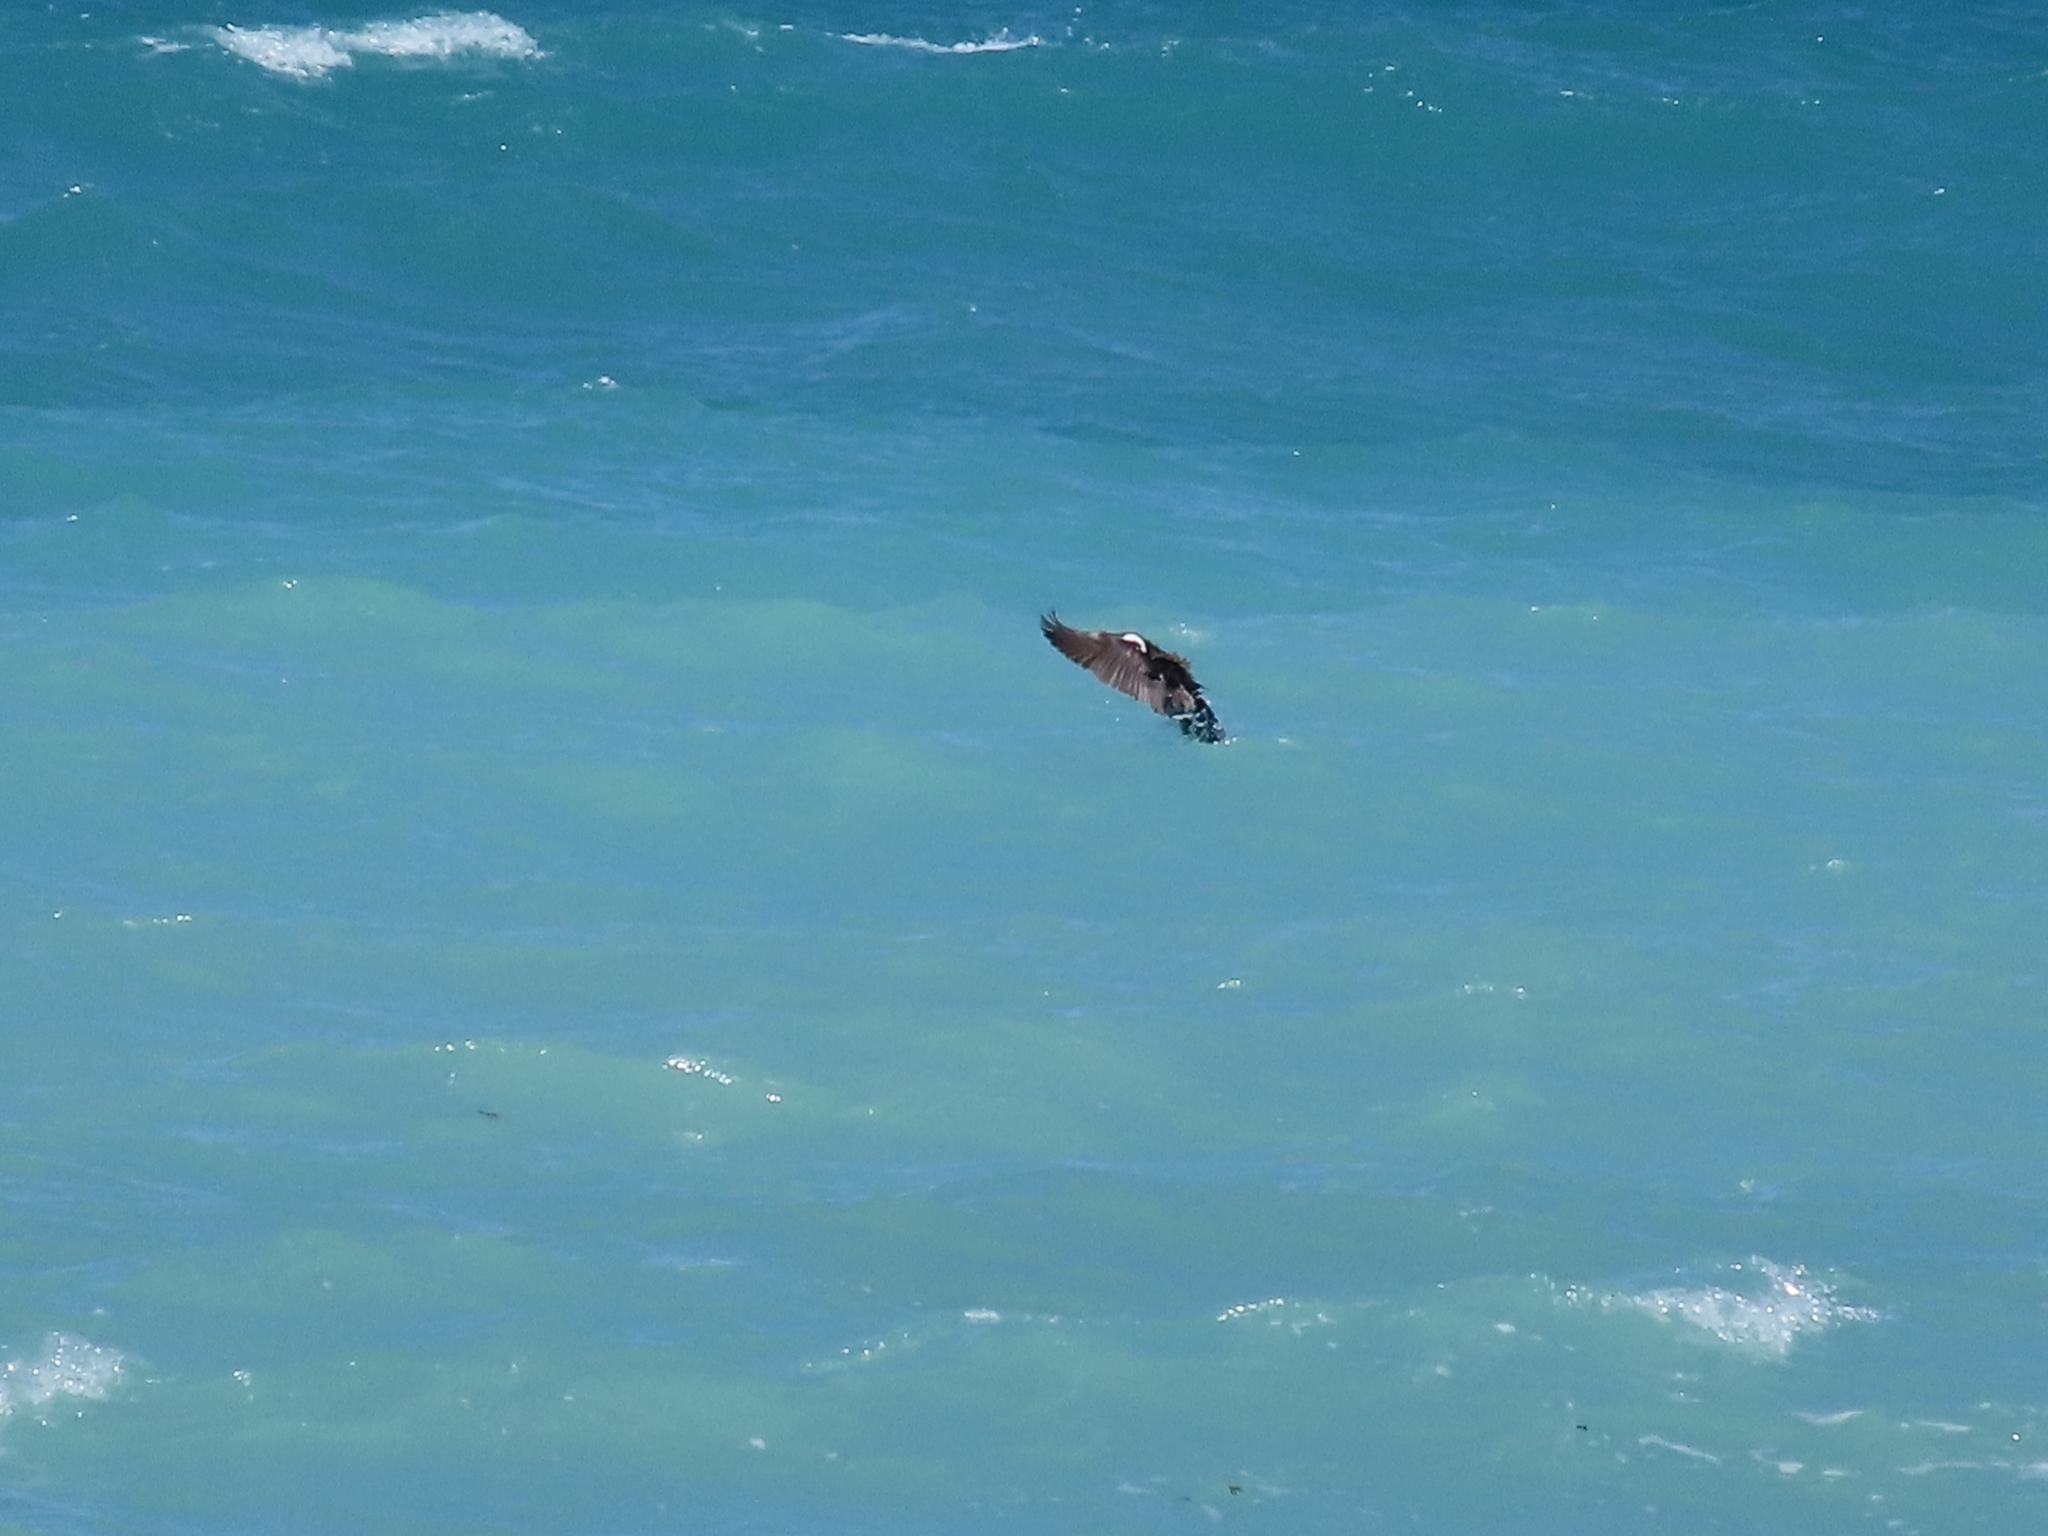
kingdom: Animalia
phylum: Chordata
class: Aves
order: Suliformes
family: Phalacrocoracidae
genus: Phalacrocorax
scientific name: Phalacrocorax punctatus
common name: Spotted shag
